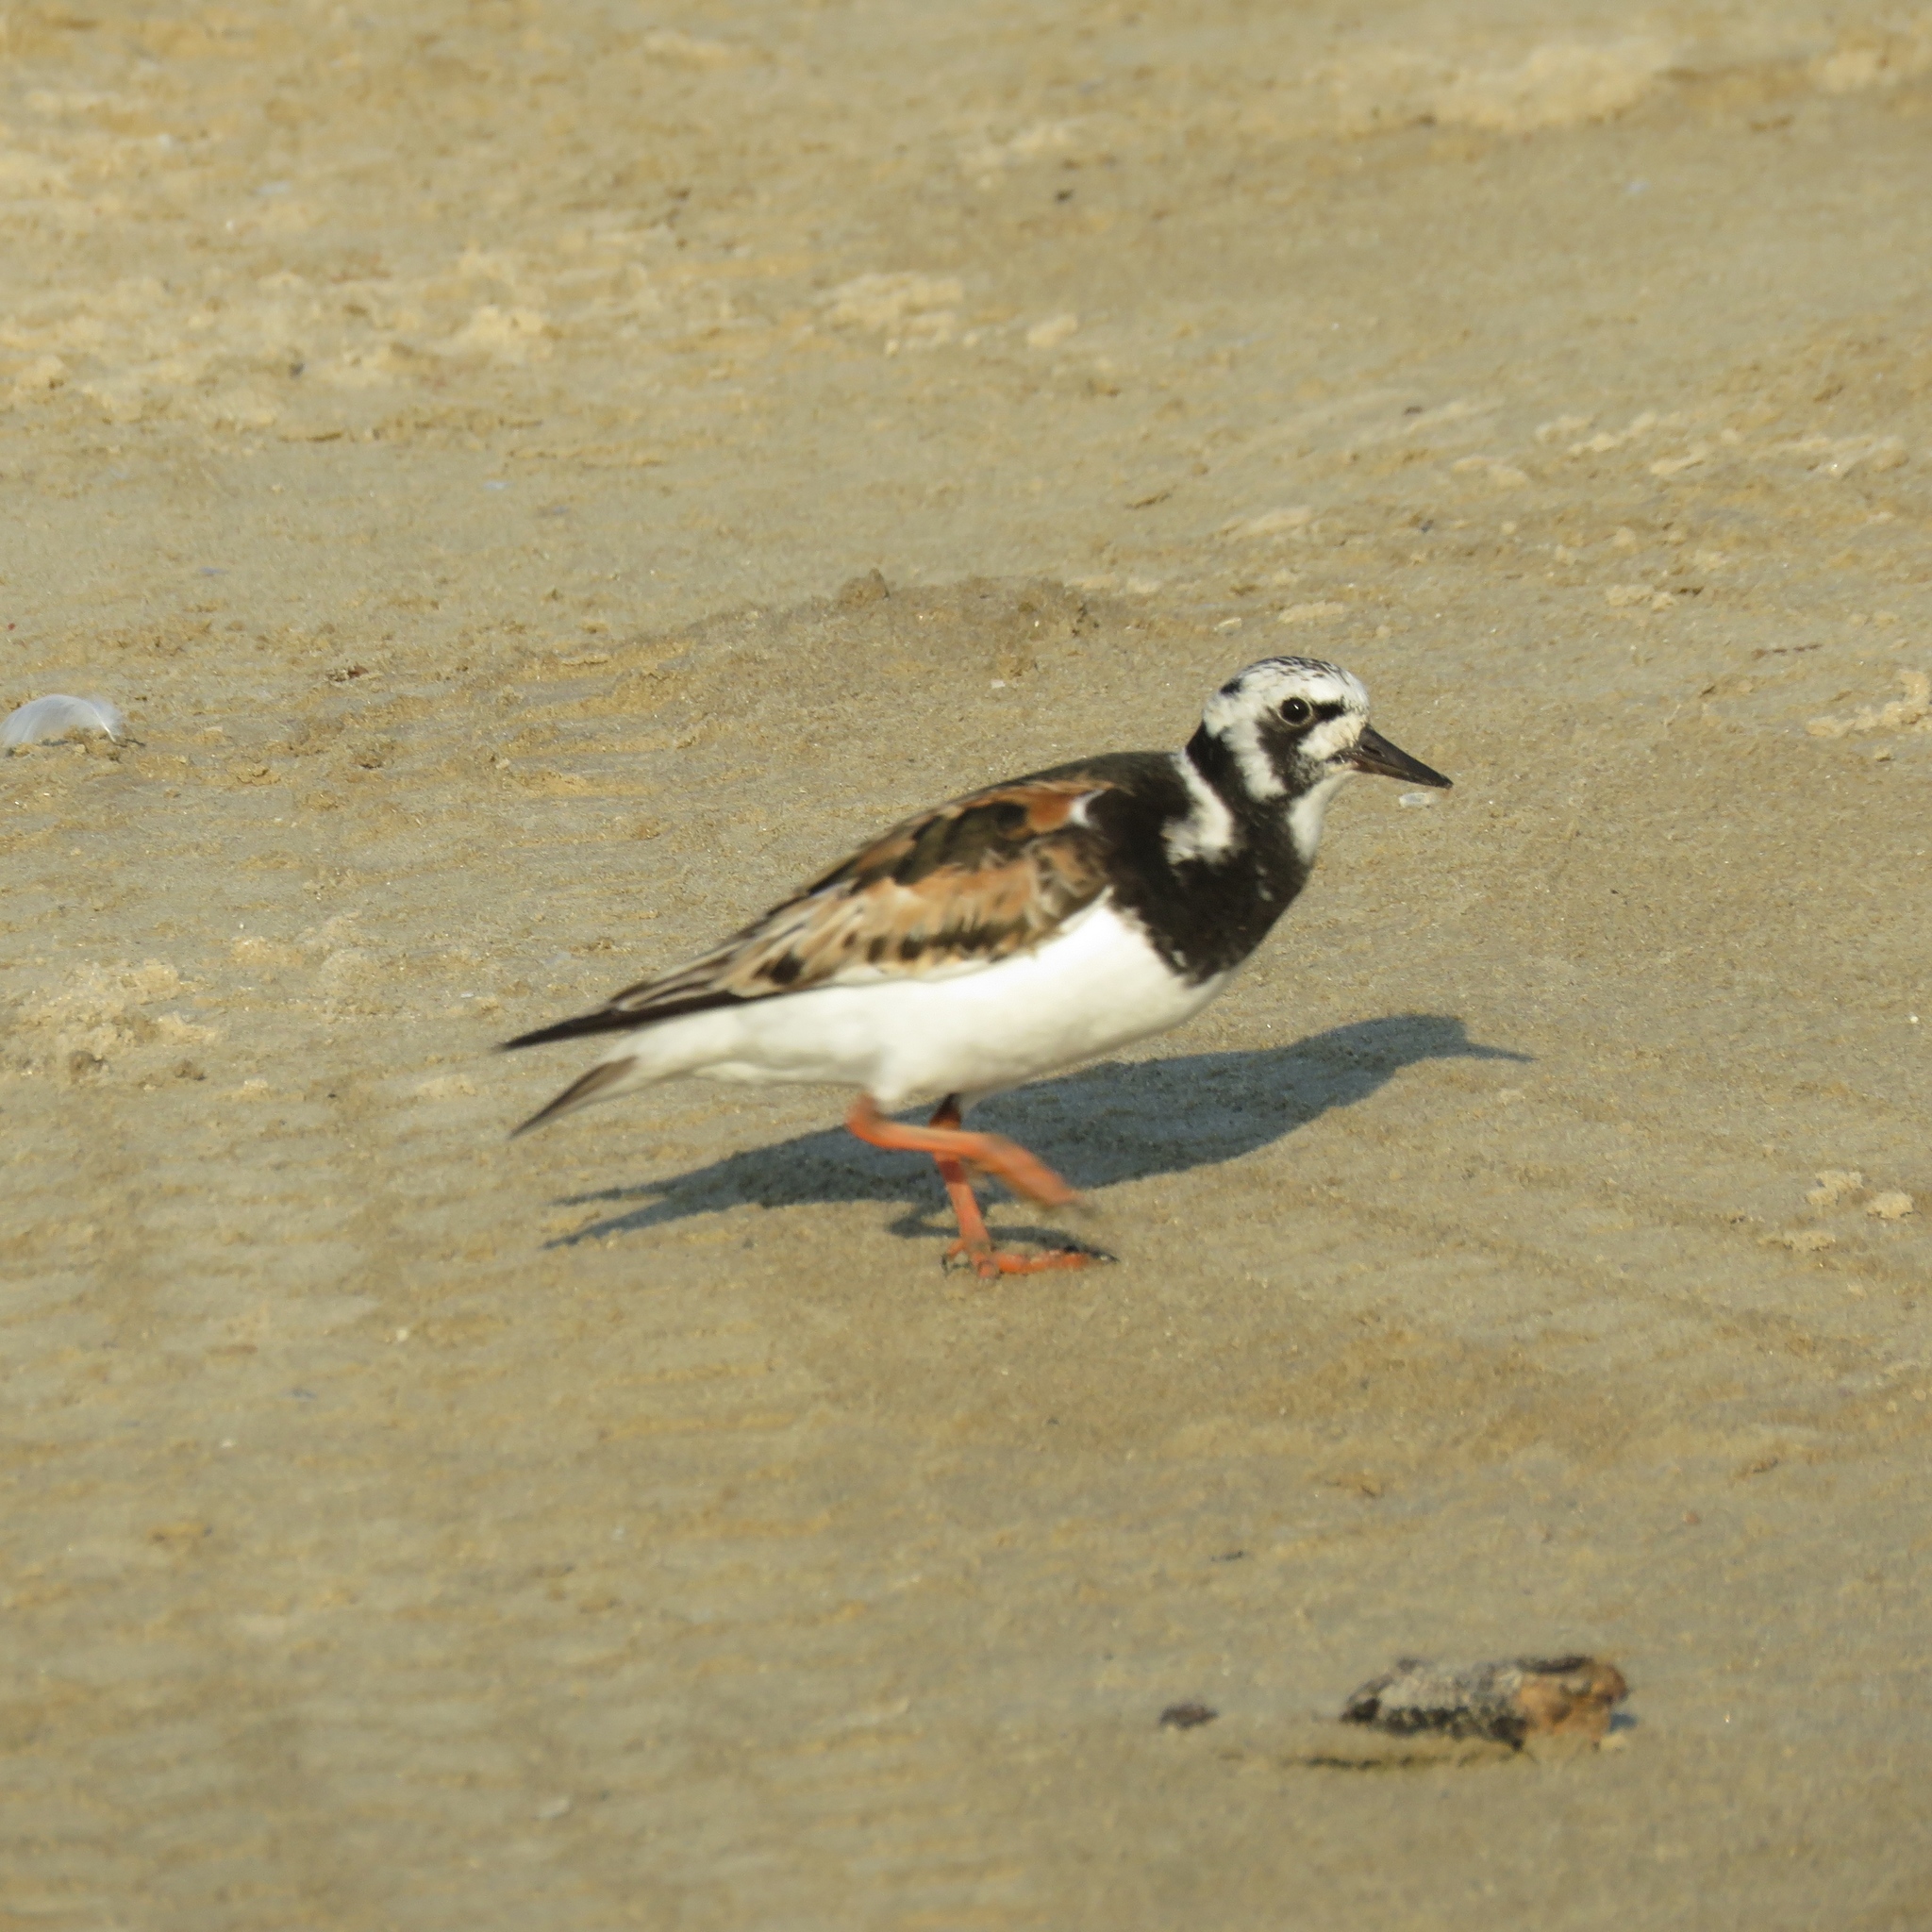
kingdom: Animalia
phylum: Chordata
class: Aves
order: Charadriiformes
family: Scolopacidae
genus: Arenaria
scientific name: Arenaria interpres
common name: Ruddy turnstone
